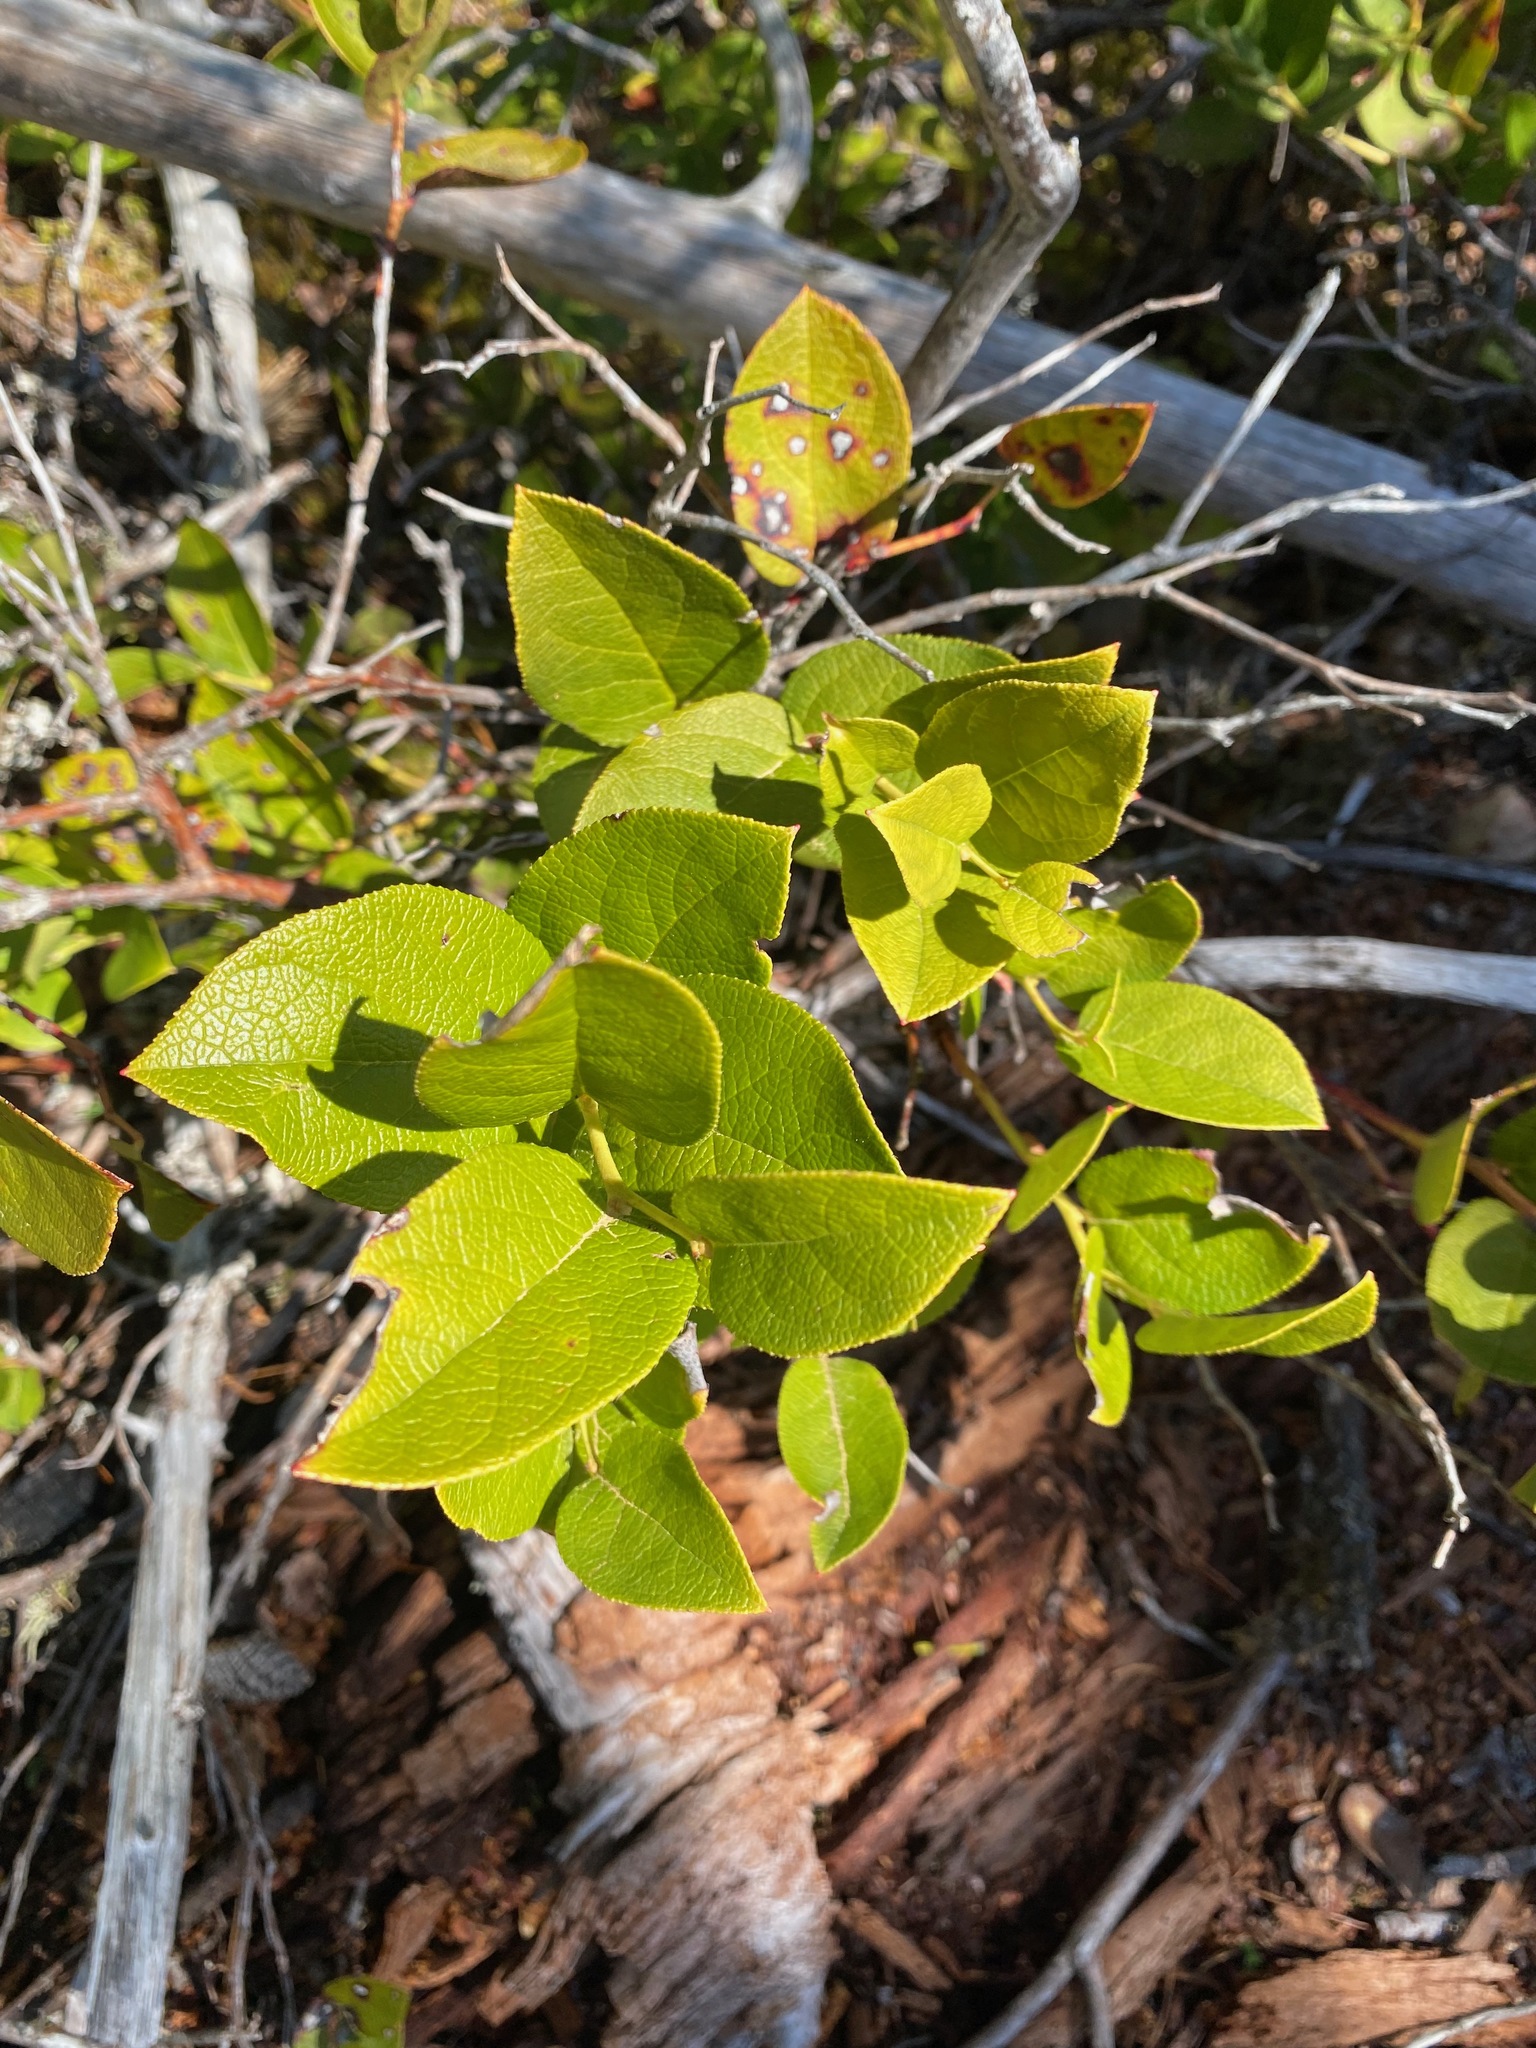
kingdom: Plantae
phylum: Tracheophyta
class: Magnoliopsida
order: Ericales
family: Ericaceae
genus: Gaultheria
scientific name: Gaultheria shallon
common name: Shallon
